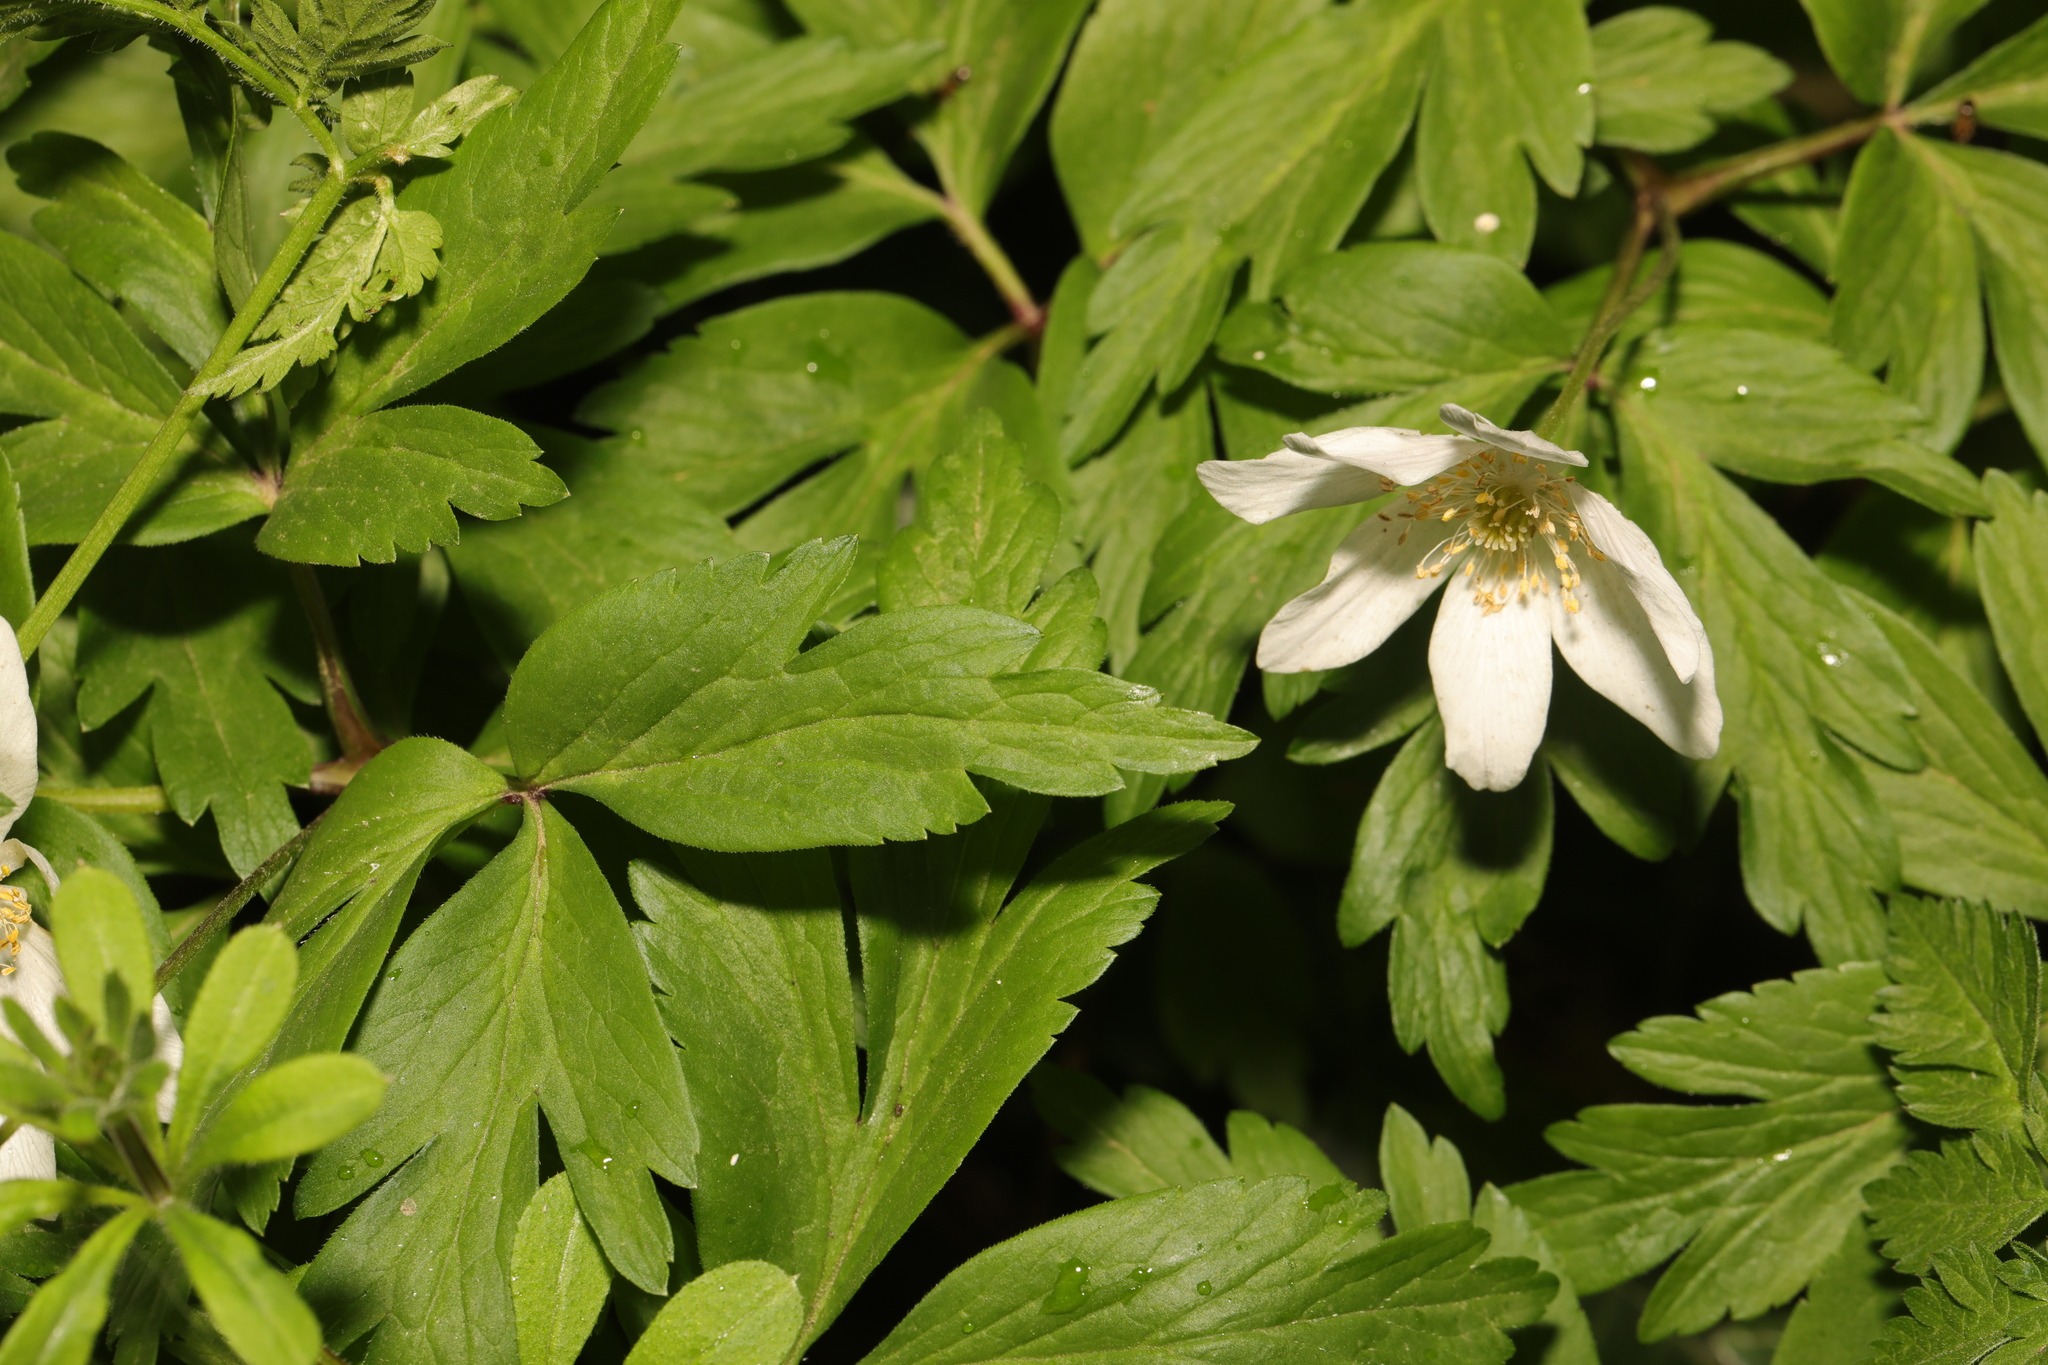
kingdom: Plantae
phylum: Tracheophyta
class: Magnoliopsida
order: Ranunculales
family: Ranunculaceae
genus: Anemone
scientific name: Anemone nemorosa
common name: Wood anemone
